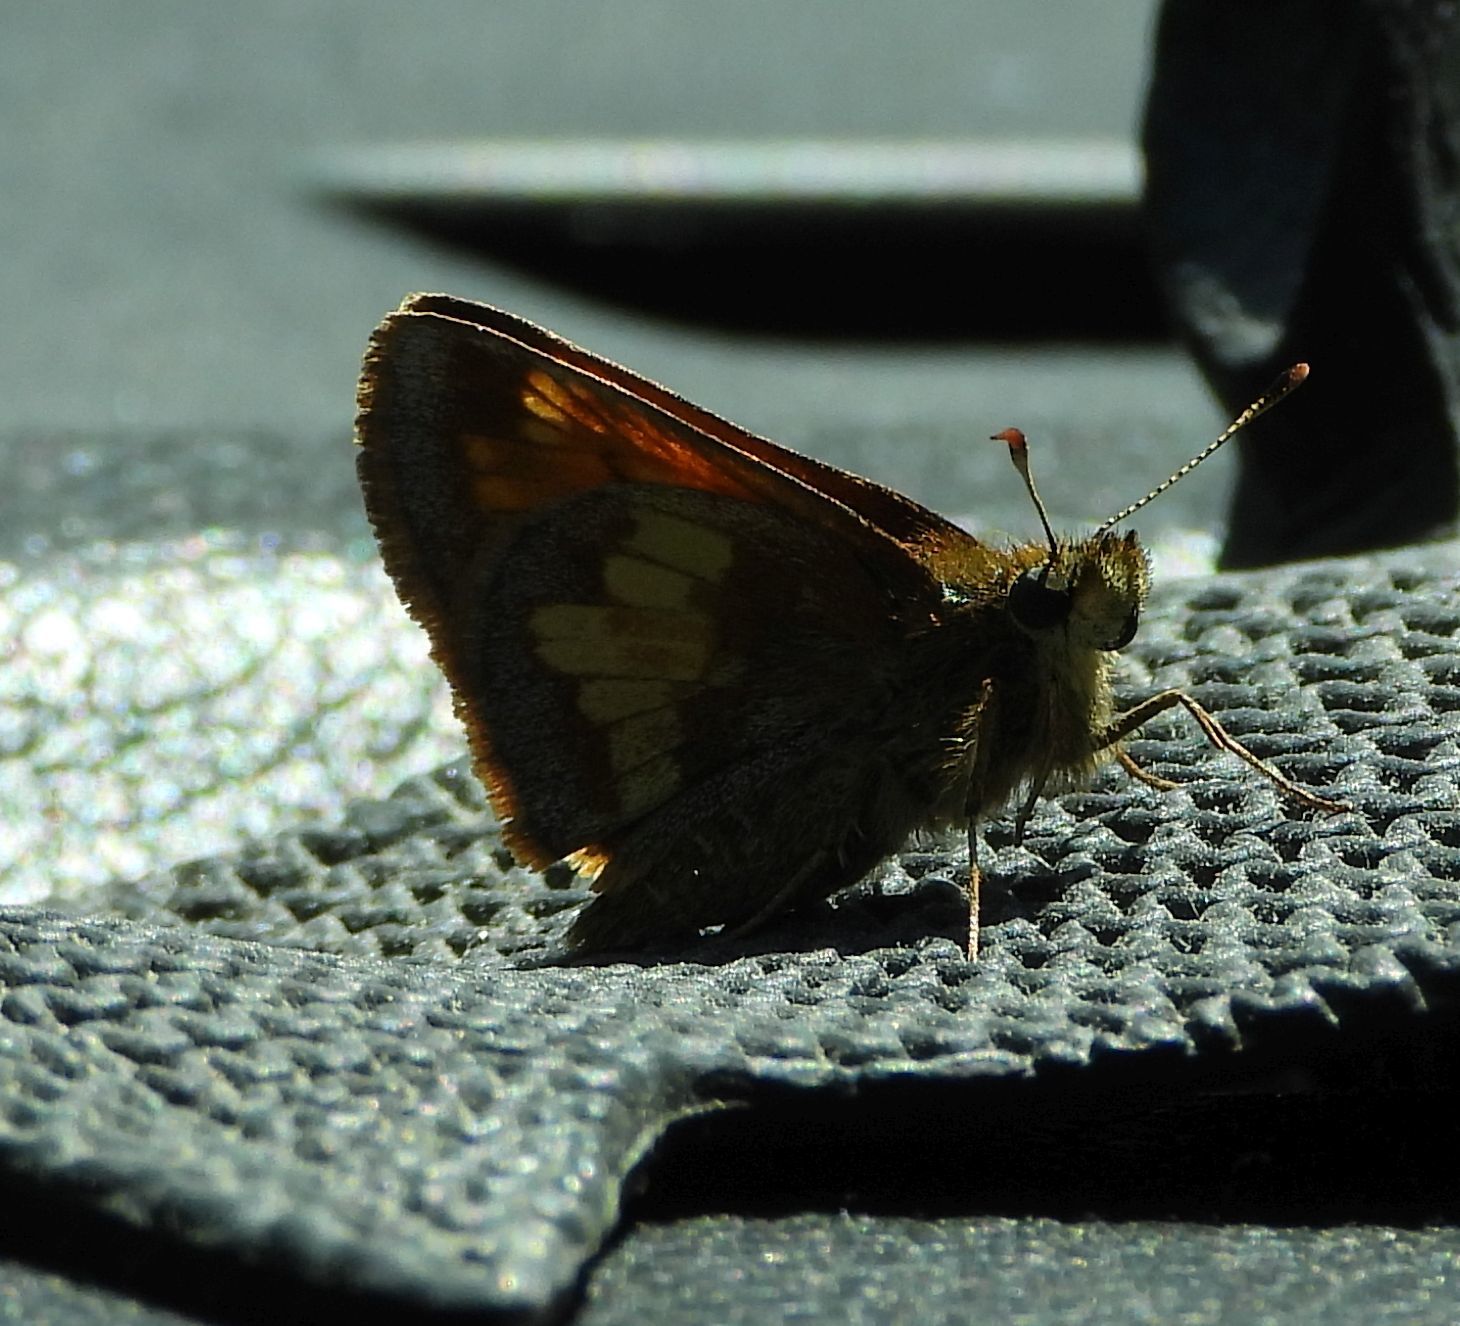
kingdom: Animalia
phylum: Arthropoda
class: Insecta
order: Lepidoptera
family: Hesperiidae
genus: Lon
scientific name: Lon hobomok
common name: Hobomok skipper
